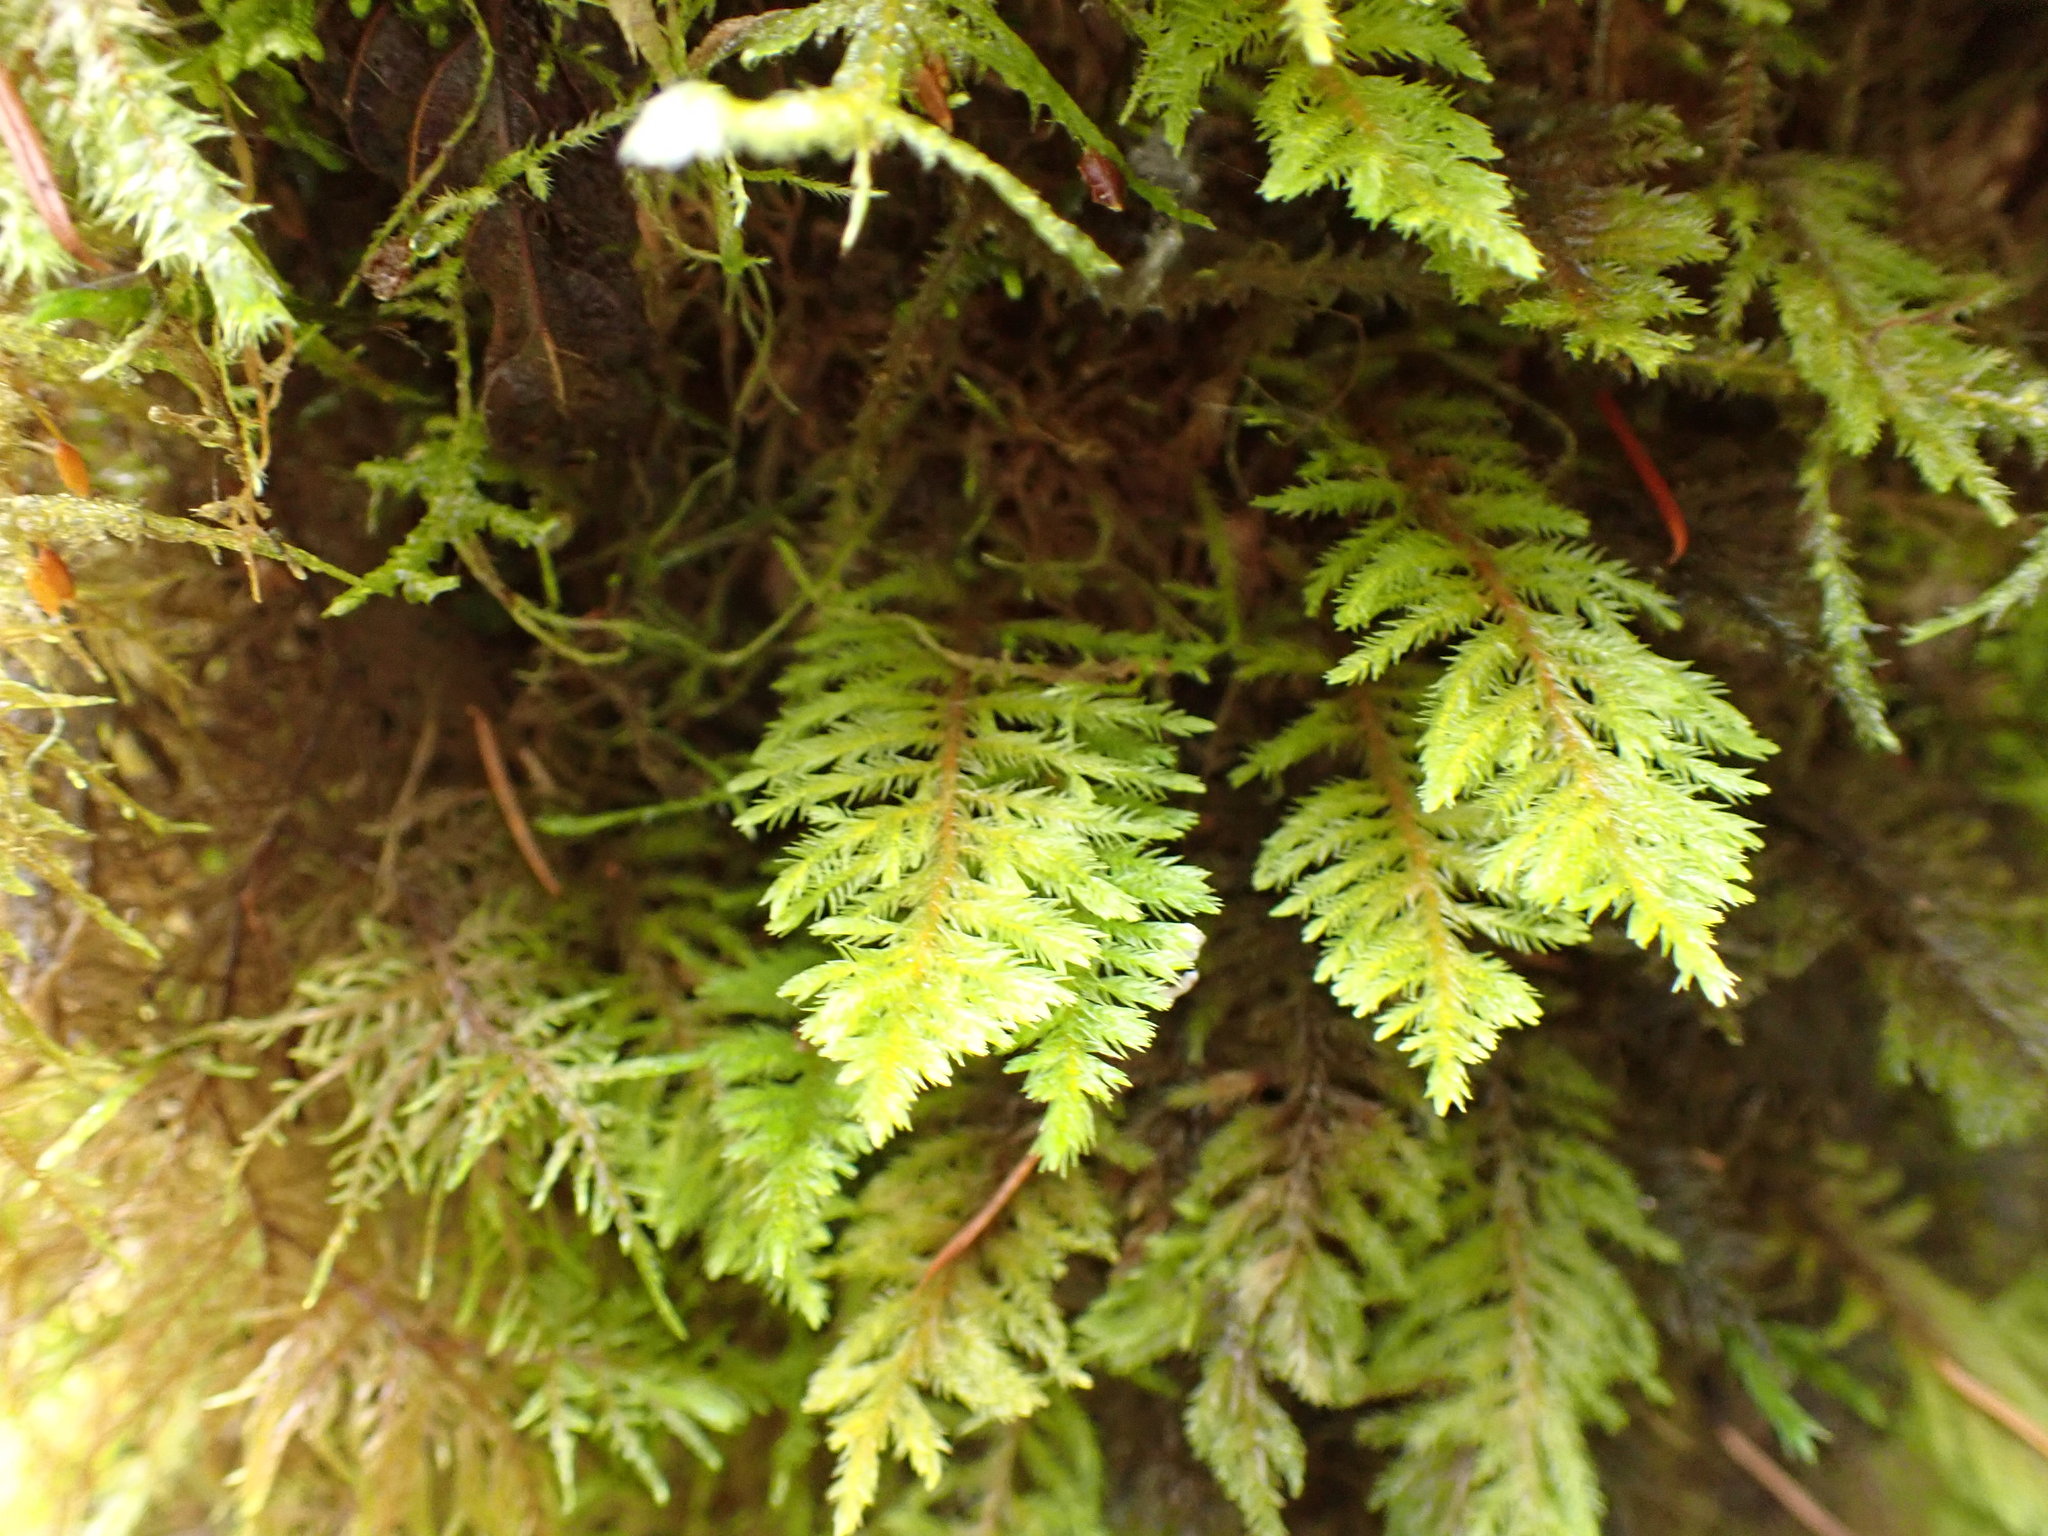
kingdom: Plantae
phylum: Bryophyta
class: Bryopsida
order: Hypnales
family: Cryphaeaceae
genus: Dendroalsia
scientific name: Dendroalsia abietina
